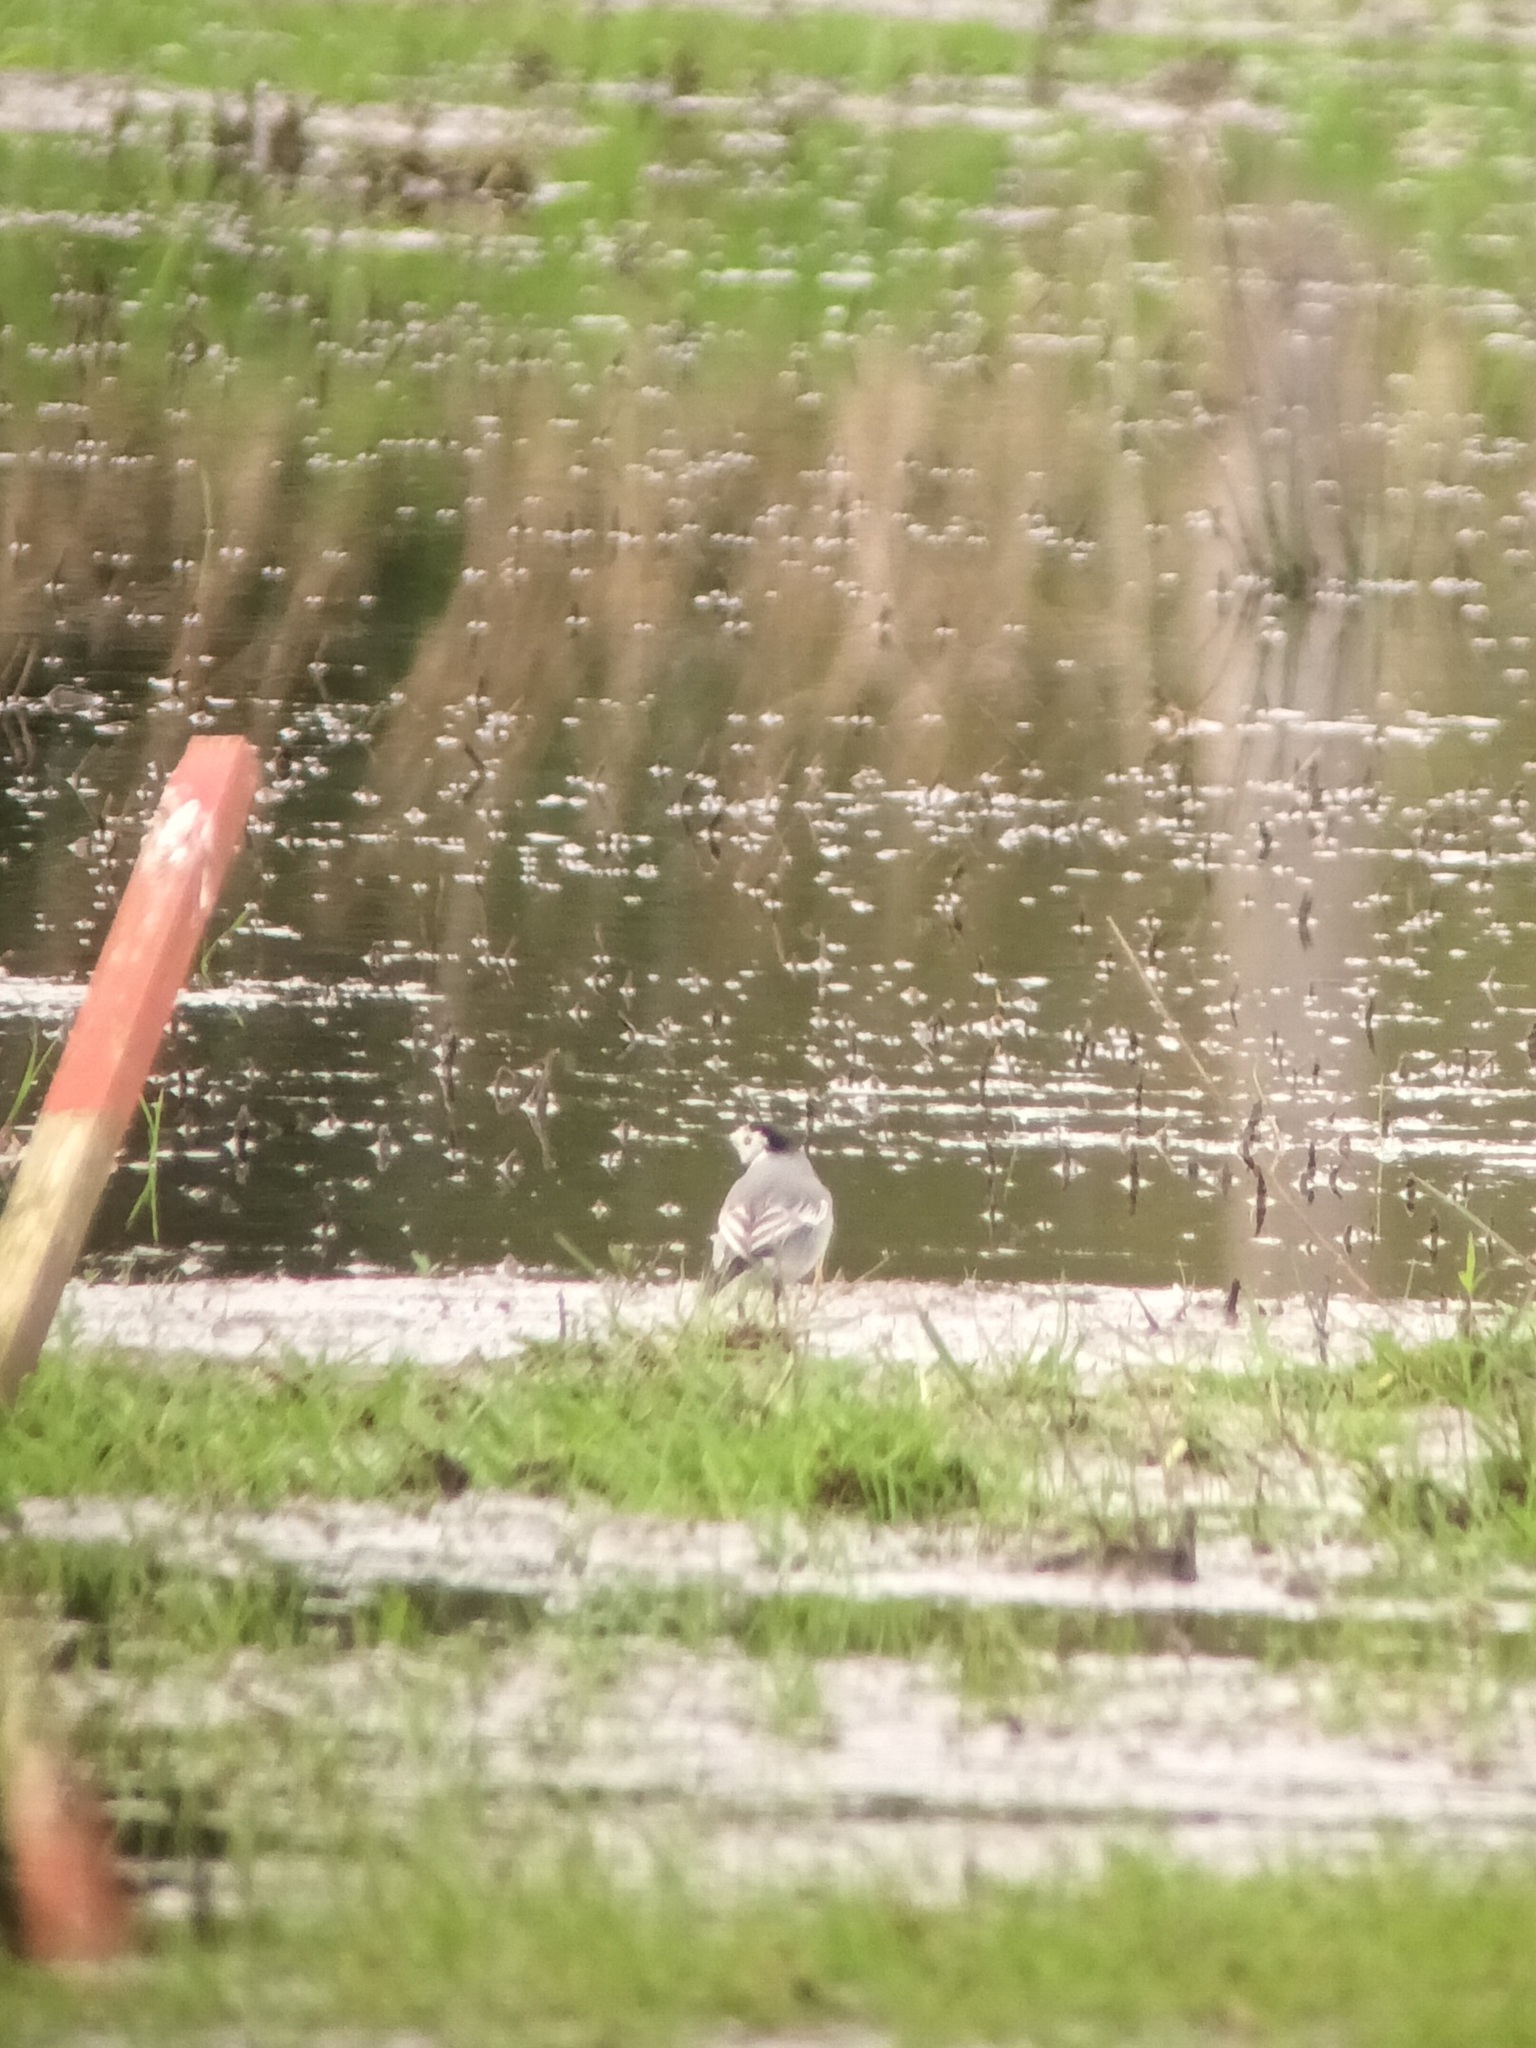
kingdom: Animalia
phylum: Chordata
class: Aves
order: Passeriformes
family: Motacillidae
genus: Motacilla
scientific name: Motacilla alba
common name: White wagtail
